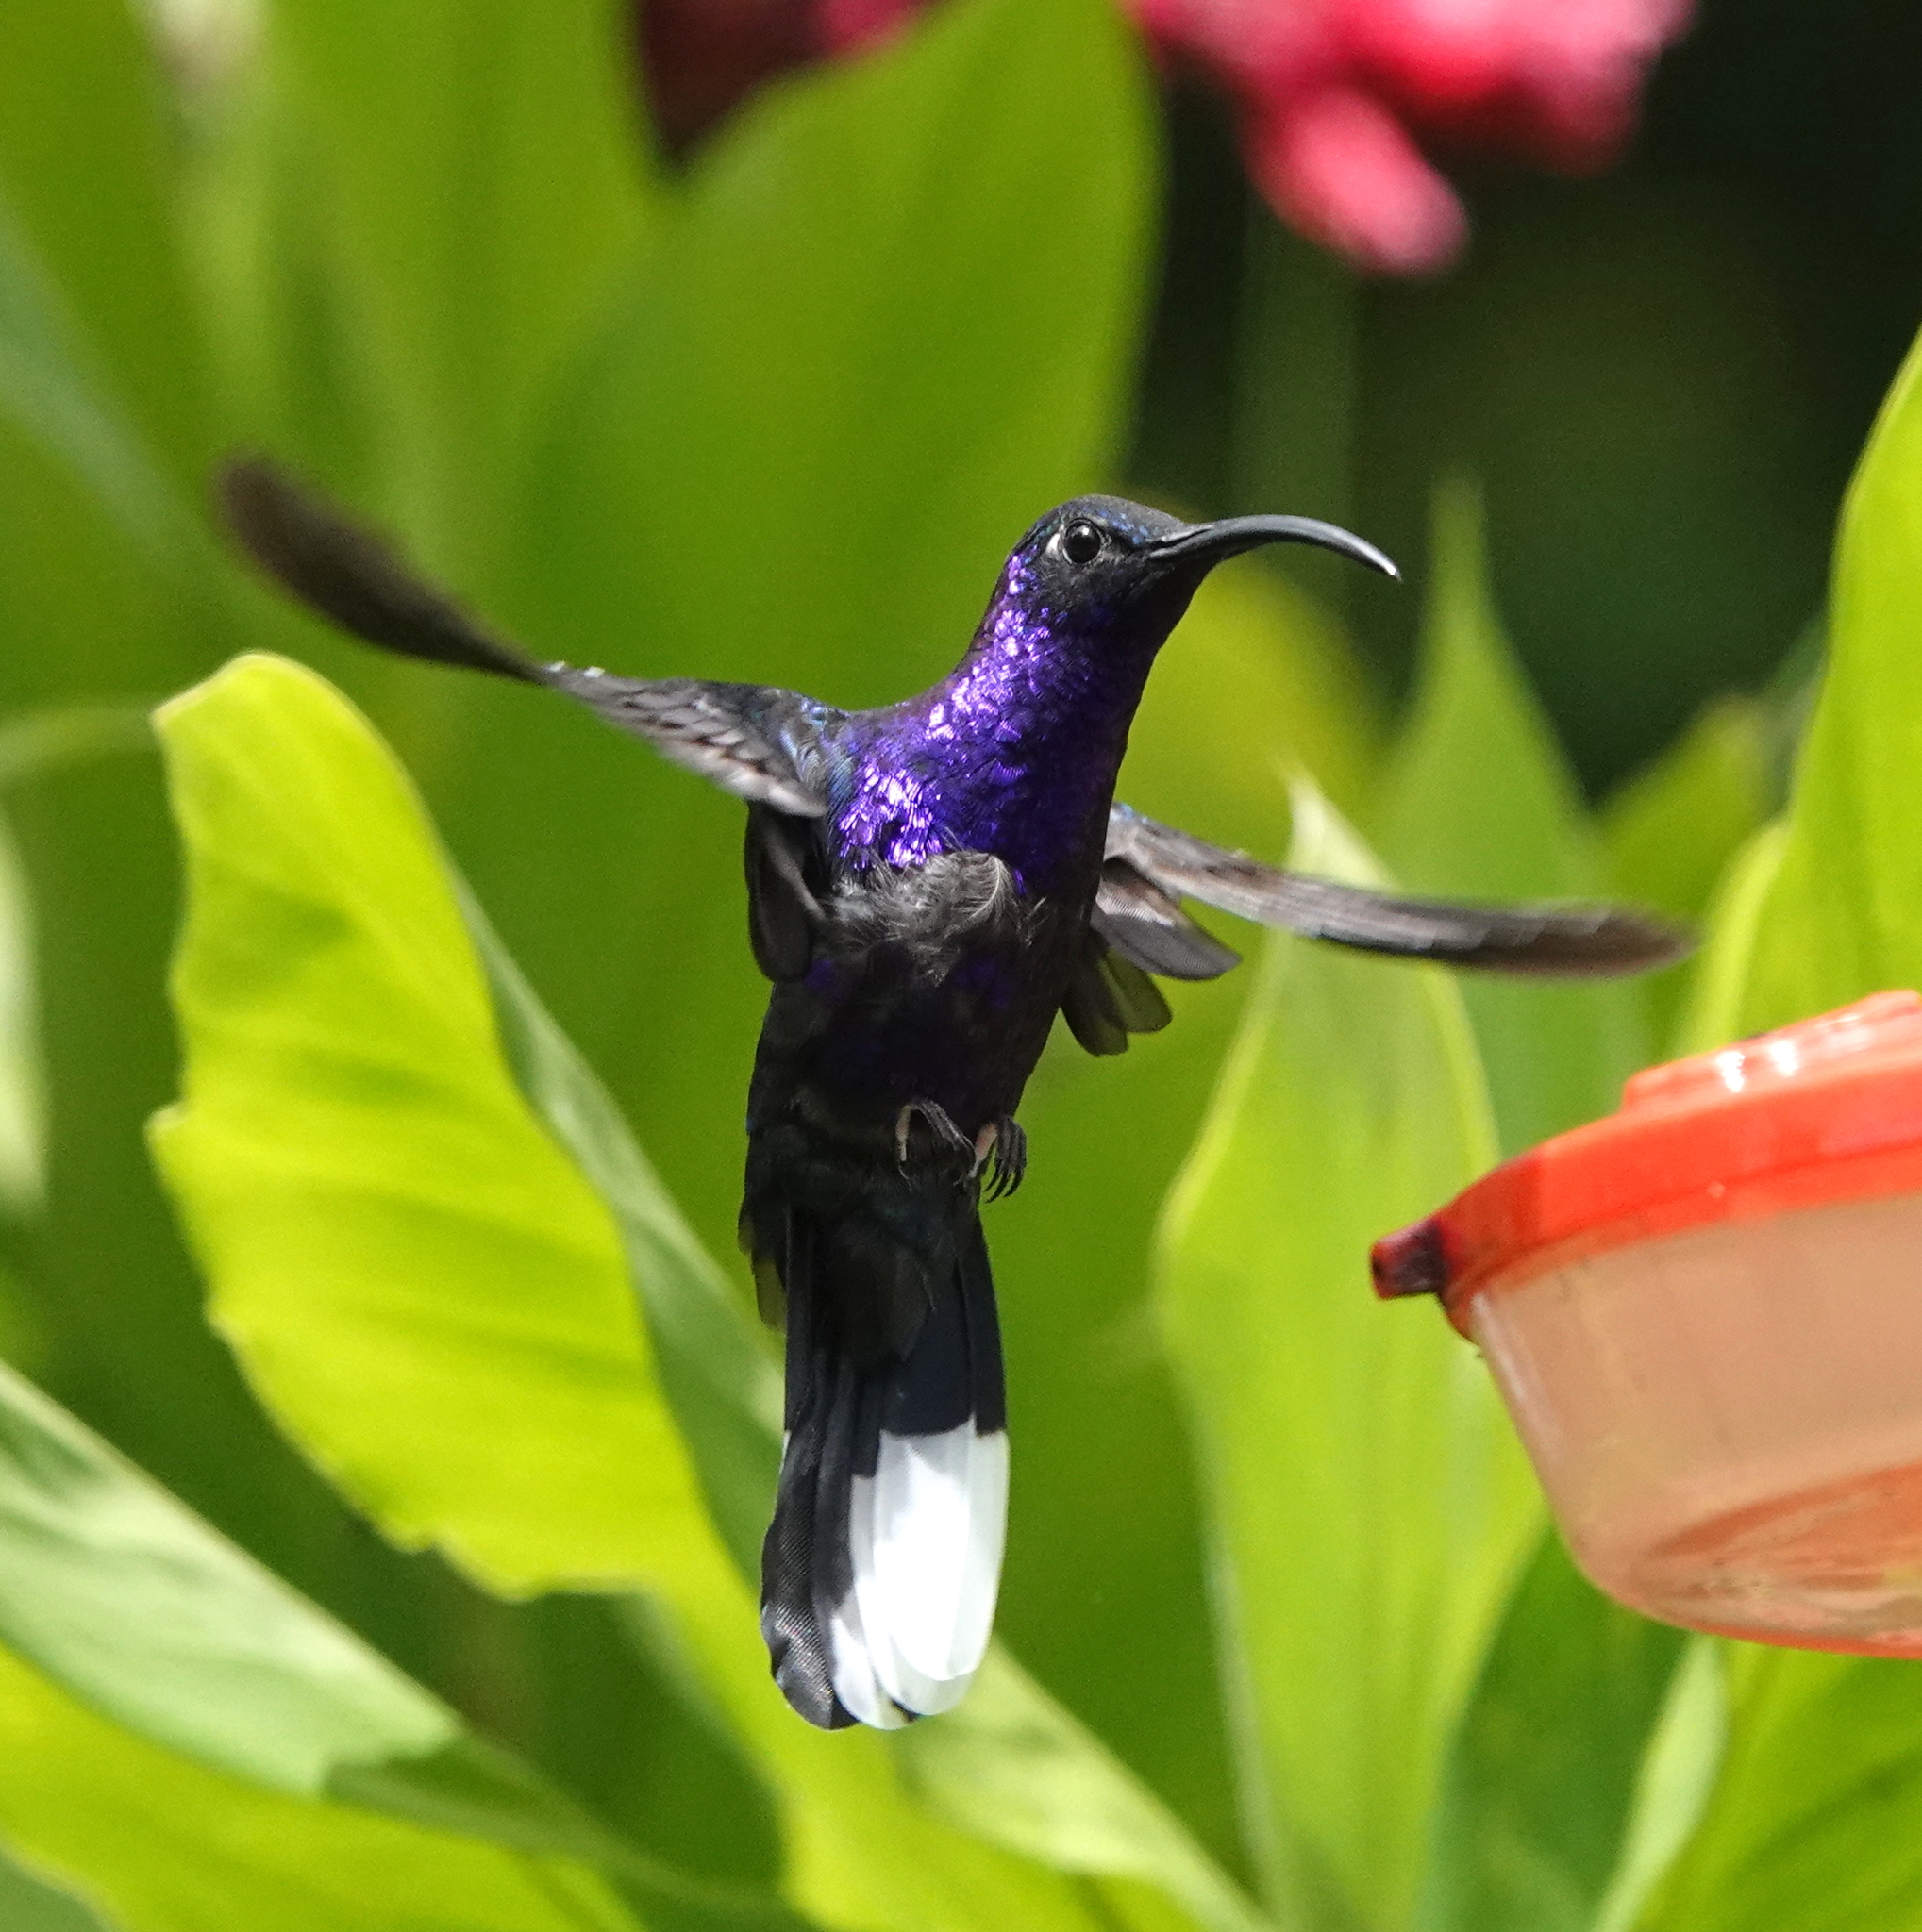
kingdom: Animalia
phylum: Chordata
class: Aves
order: Apodiformes
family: Trochilidae
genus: Campylopterus
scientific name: Campylopterus hemileucurus
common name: Violet sabrewing
